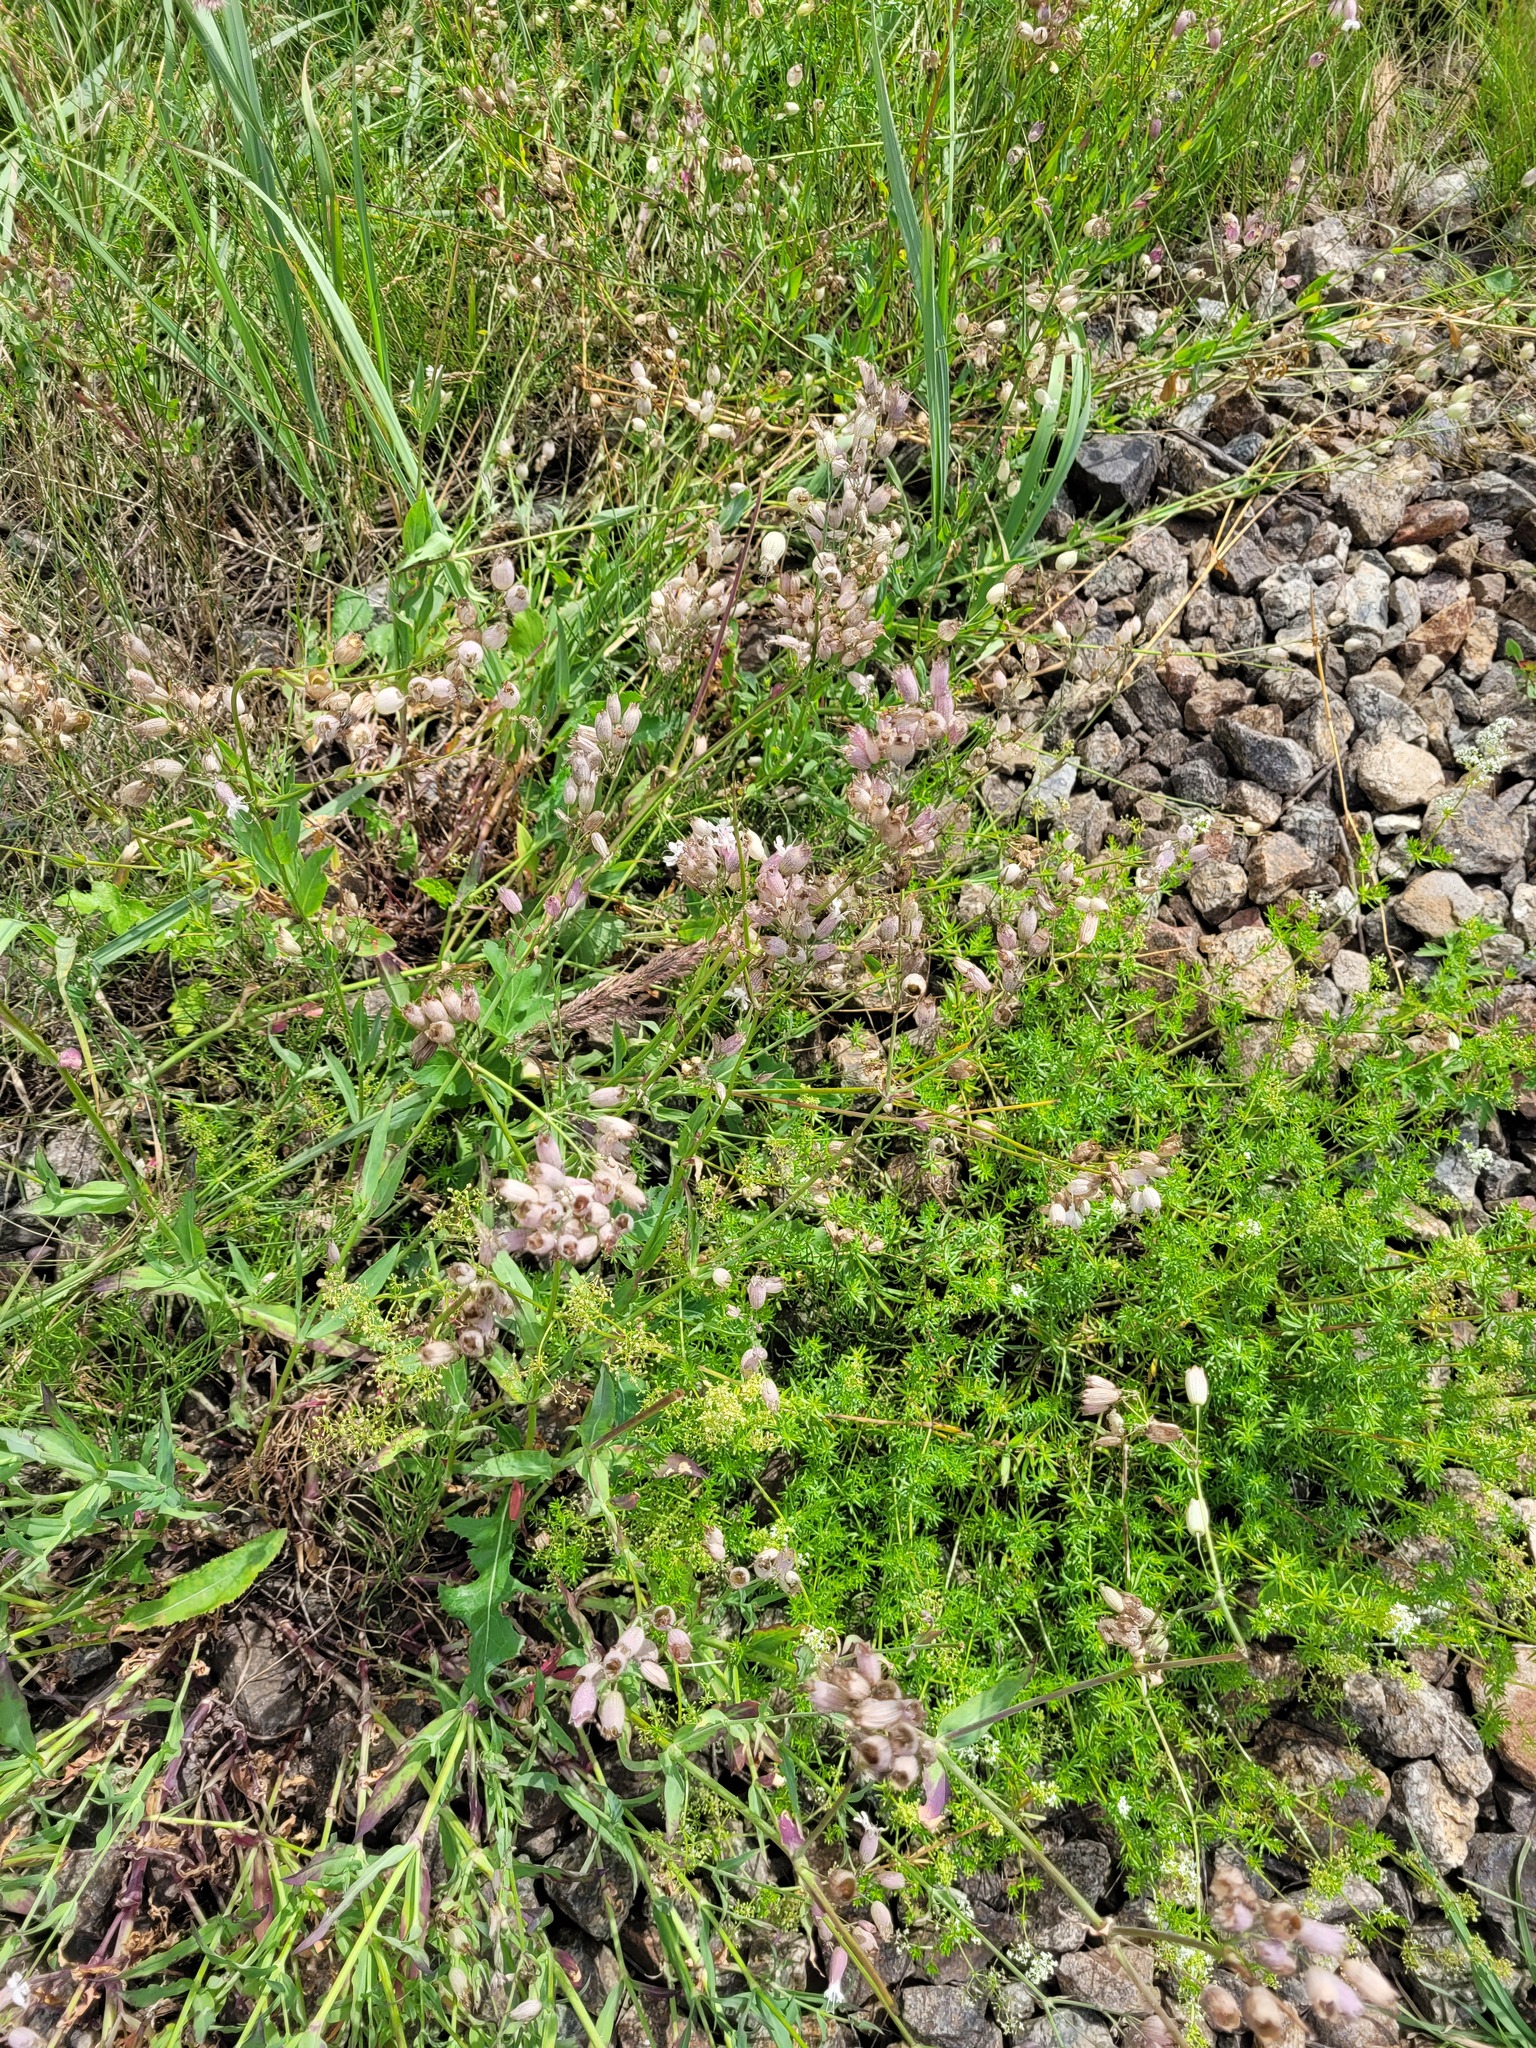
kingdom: Plantae
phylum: Tracheophyta
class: Magnoliopsida
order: Caryophyllales
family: Caryophyllaceae
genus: Silene
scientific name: Silene vulgaris
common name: Bladder campion
